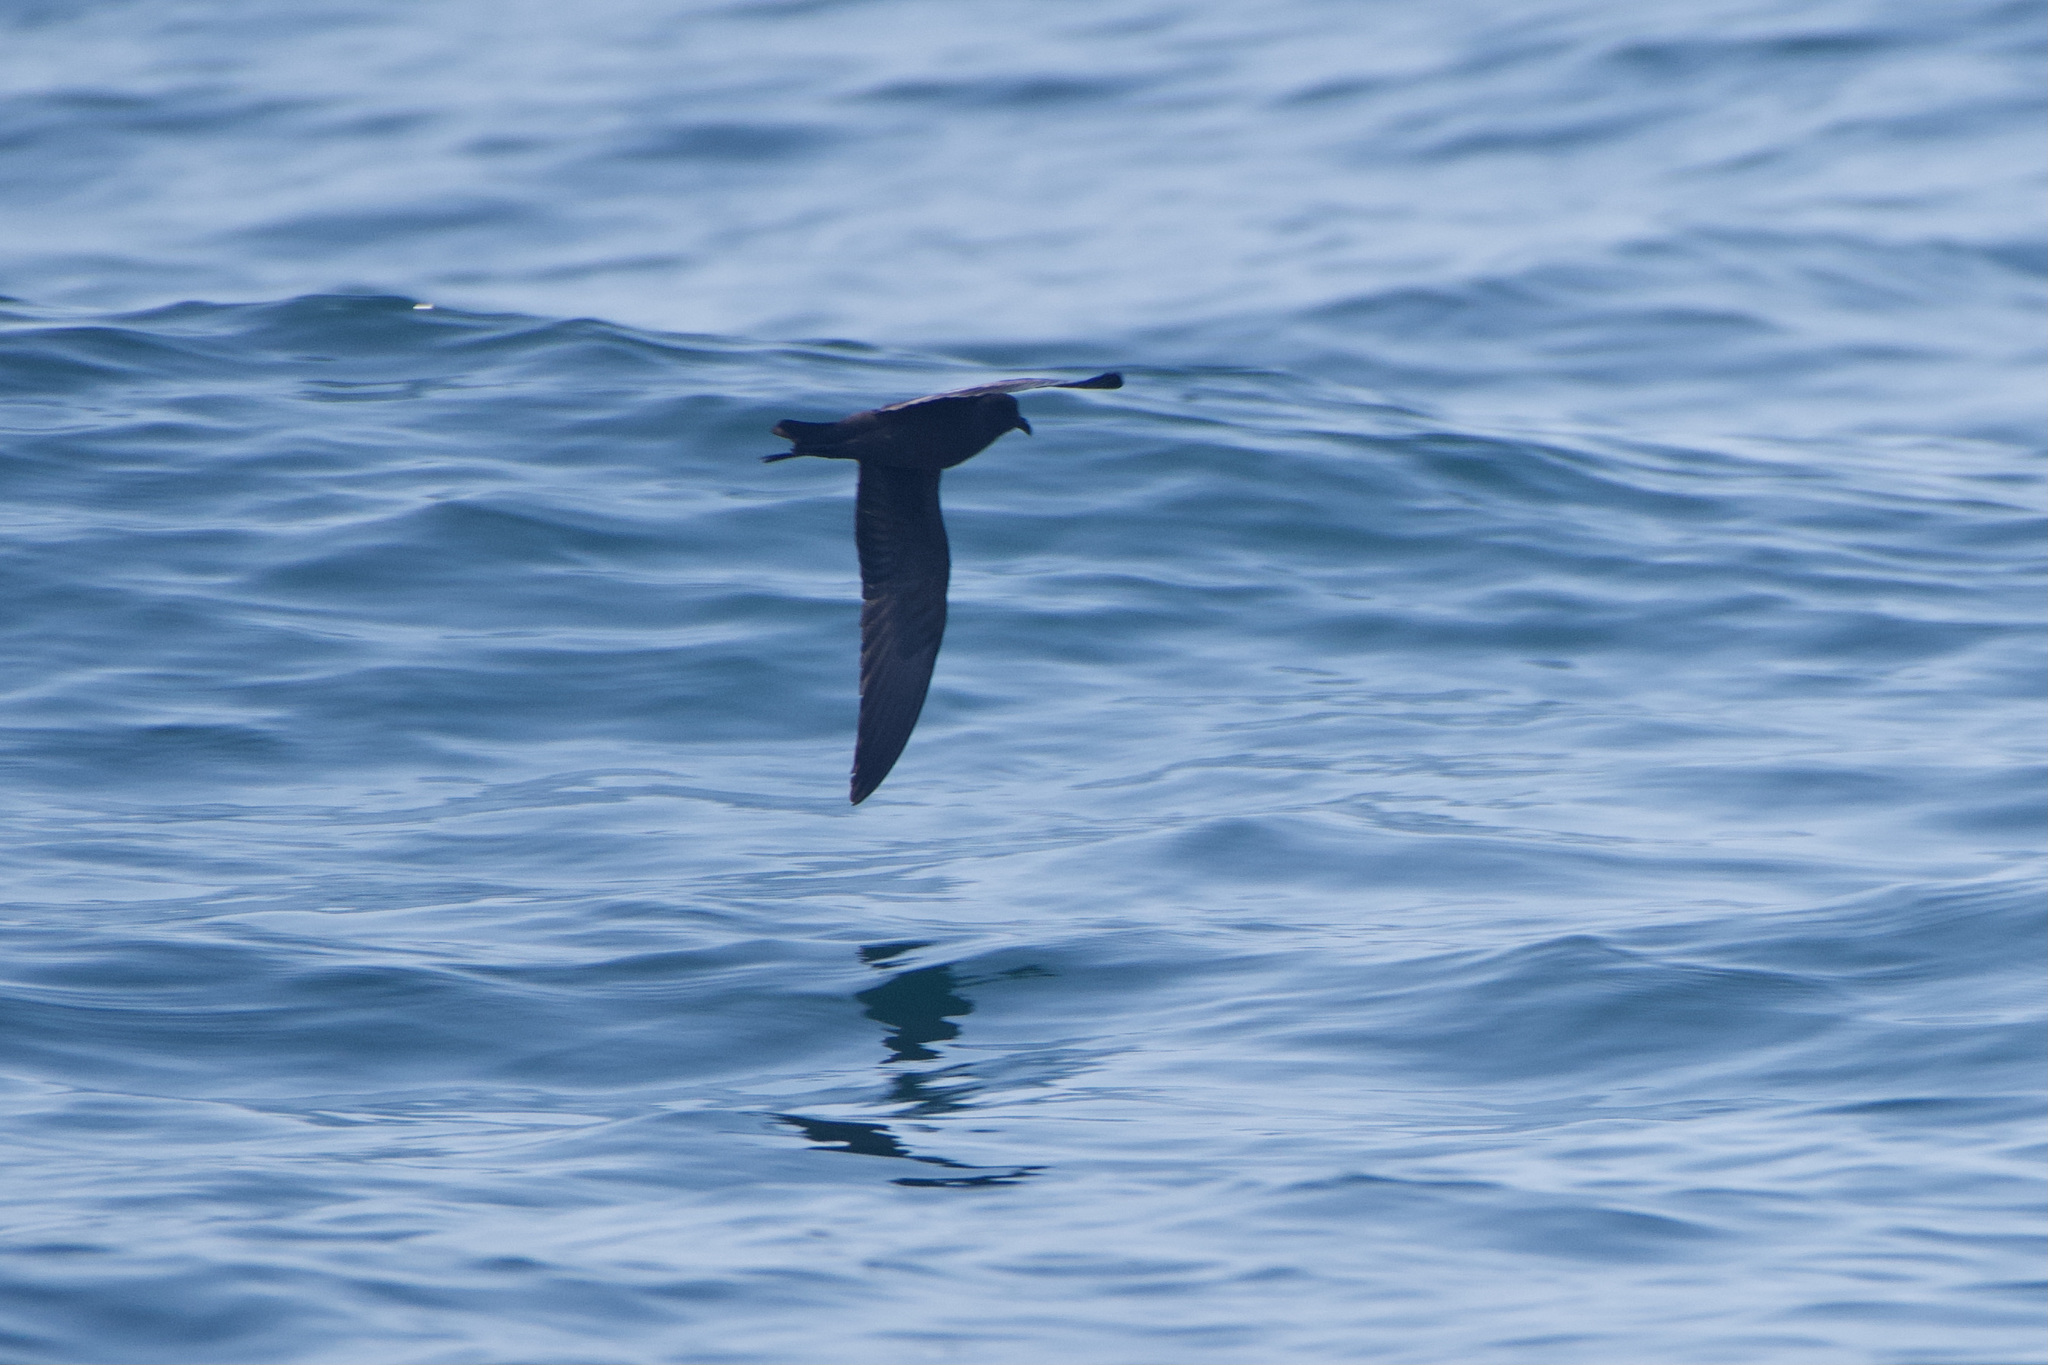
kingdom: Animalia
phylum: Chordata
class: Aves
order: Procellariiformes
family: Hydrobatidae
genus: Hydrobates
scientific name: Hydrobates melania
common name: Black storm petrel
